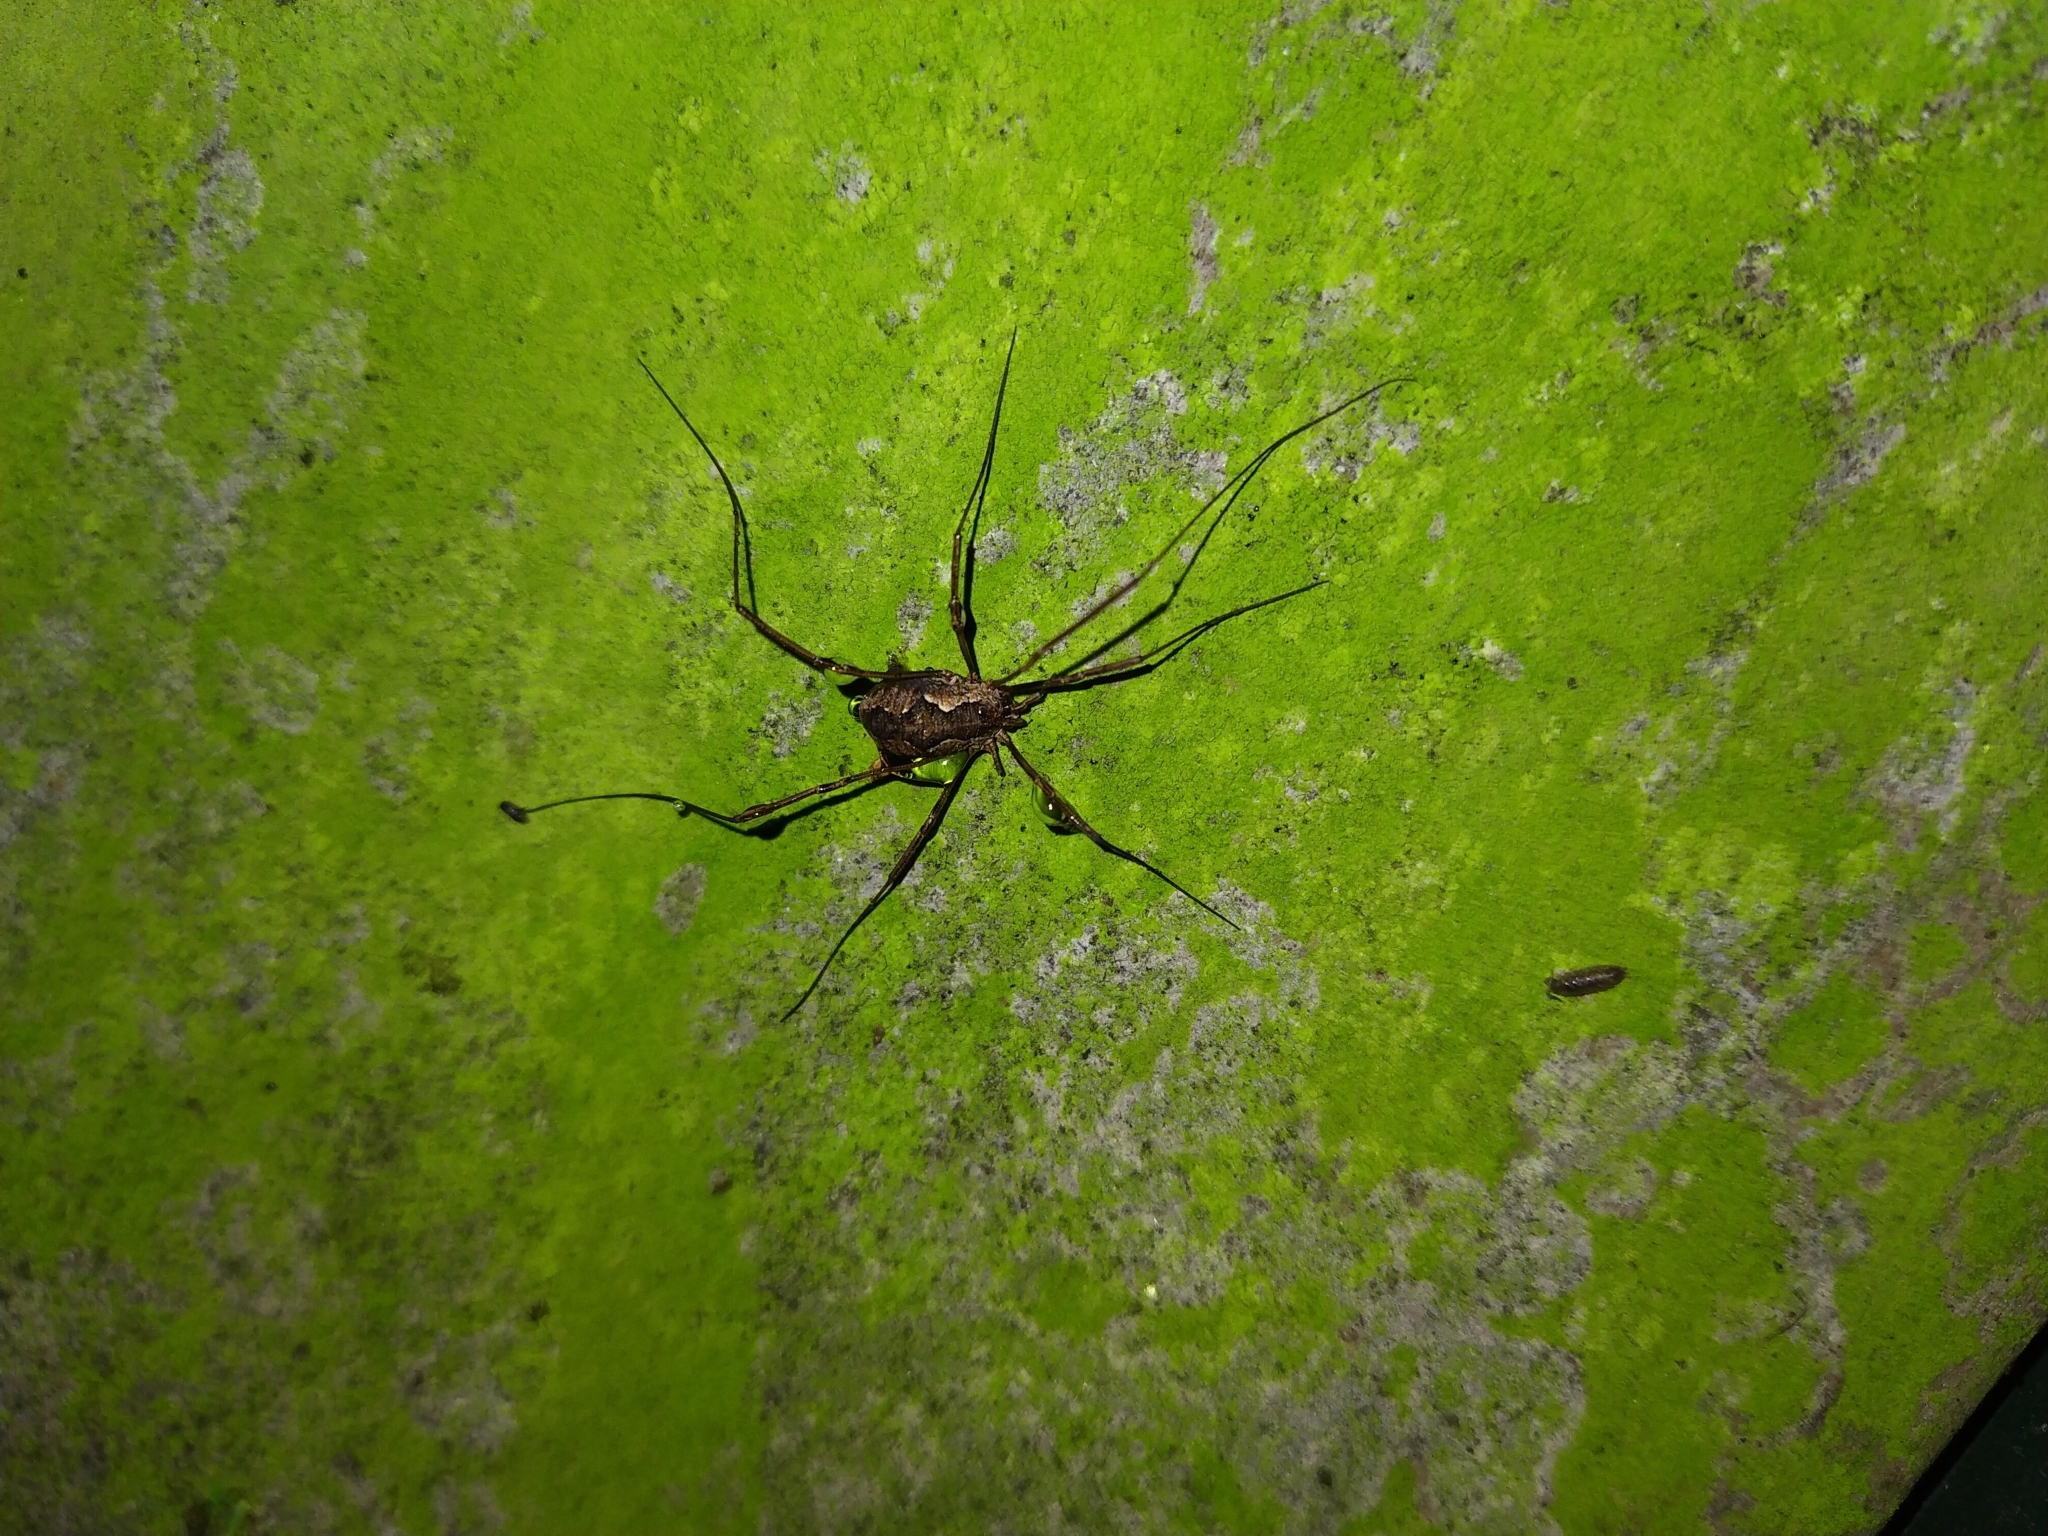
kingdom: Animalia
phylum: Arthropoda
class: Arachnida
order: Opiliones
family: Phalangiidae
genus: Phalangium
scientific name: Phalangium opilio
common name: Daddy longleg
